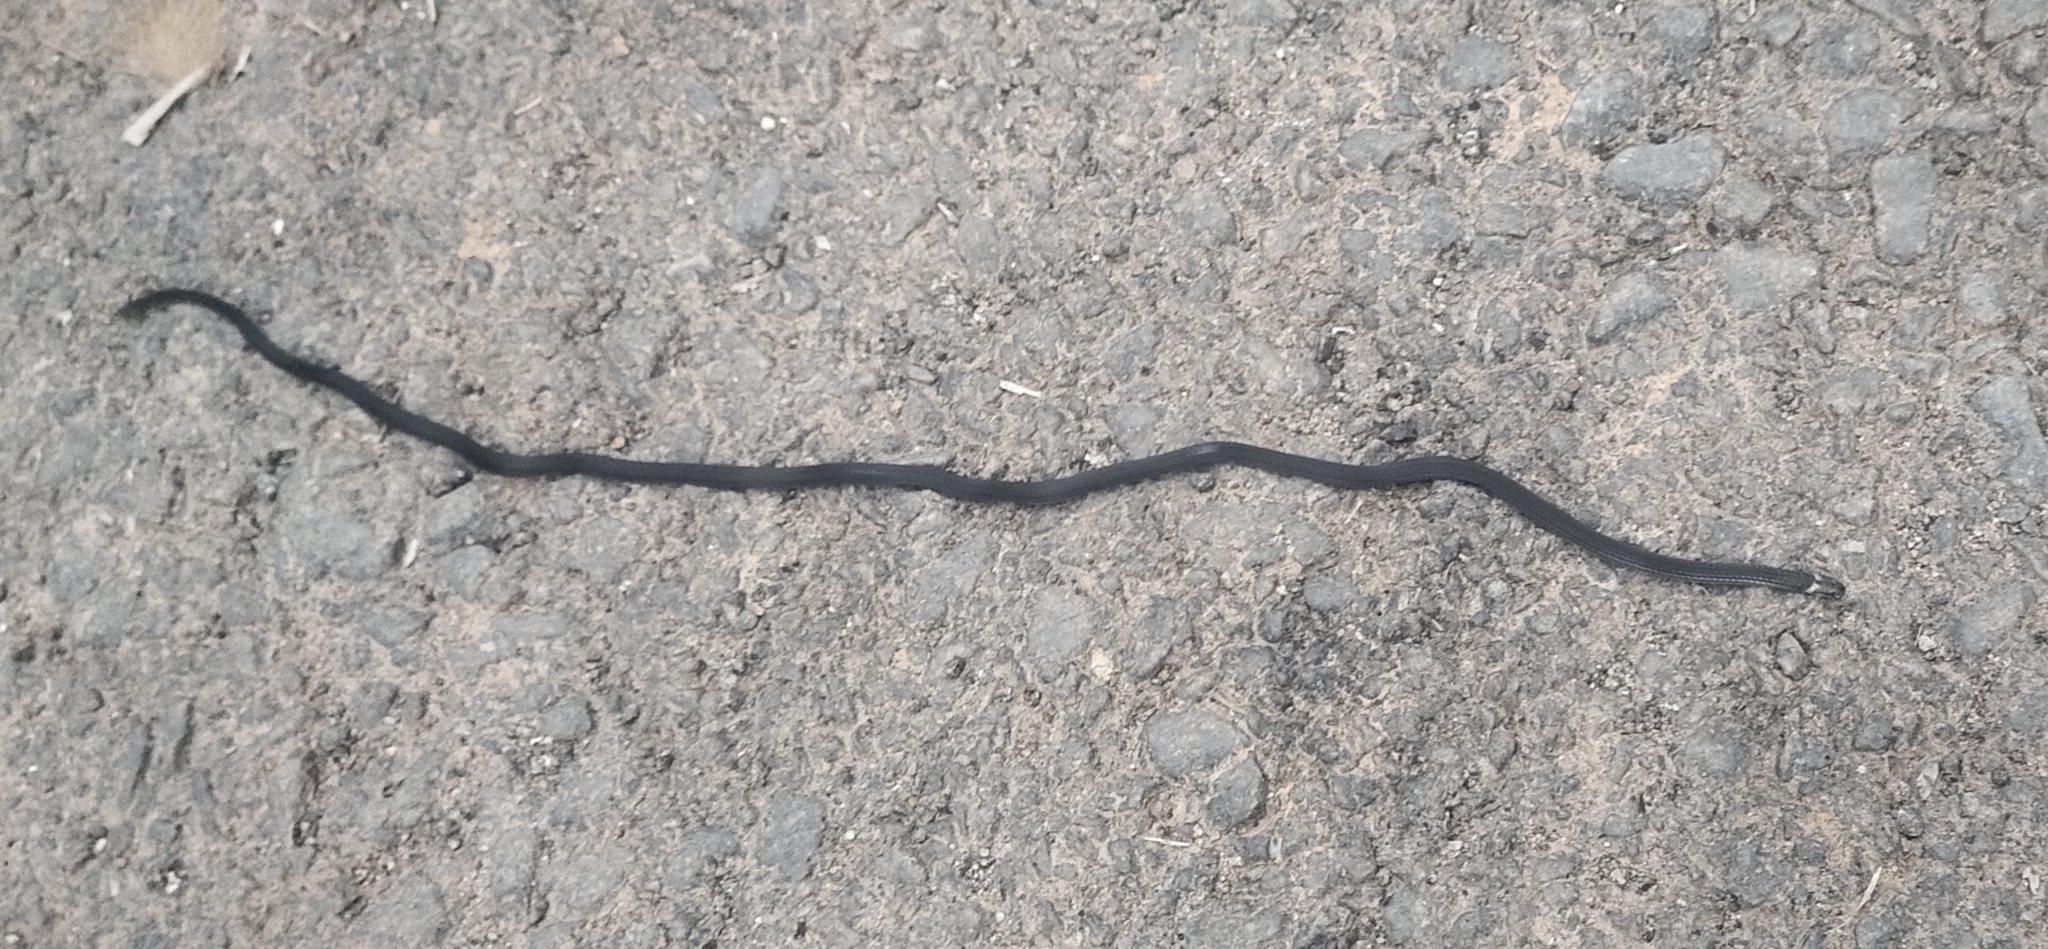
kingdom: Animalia
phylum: Chordata
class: Squamata
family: Elapidae
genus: Calliophis
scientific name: Calliophis nigrescens
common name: Black coral snake
